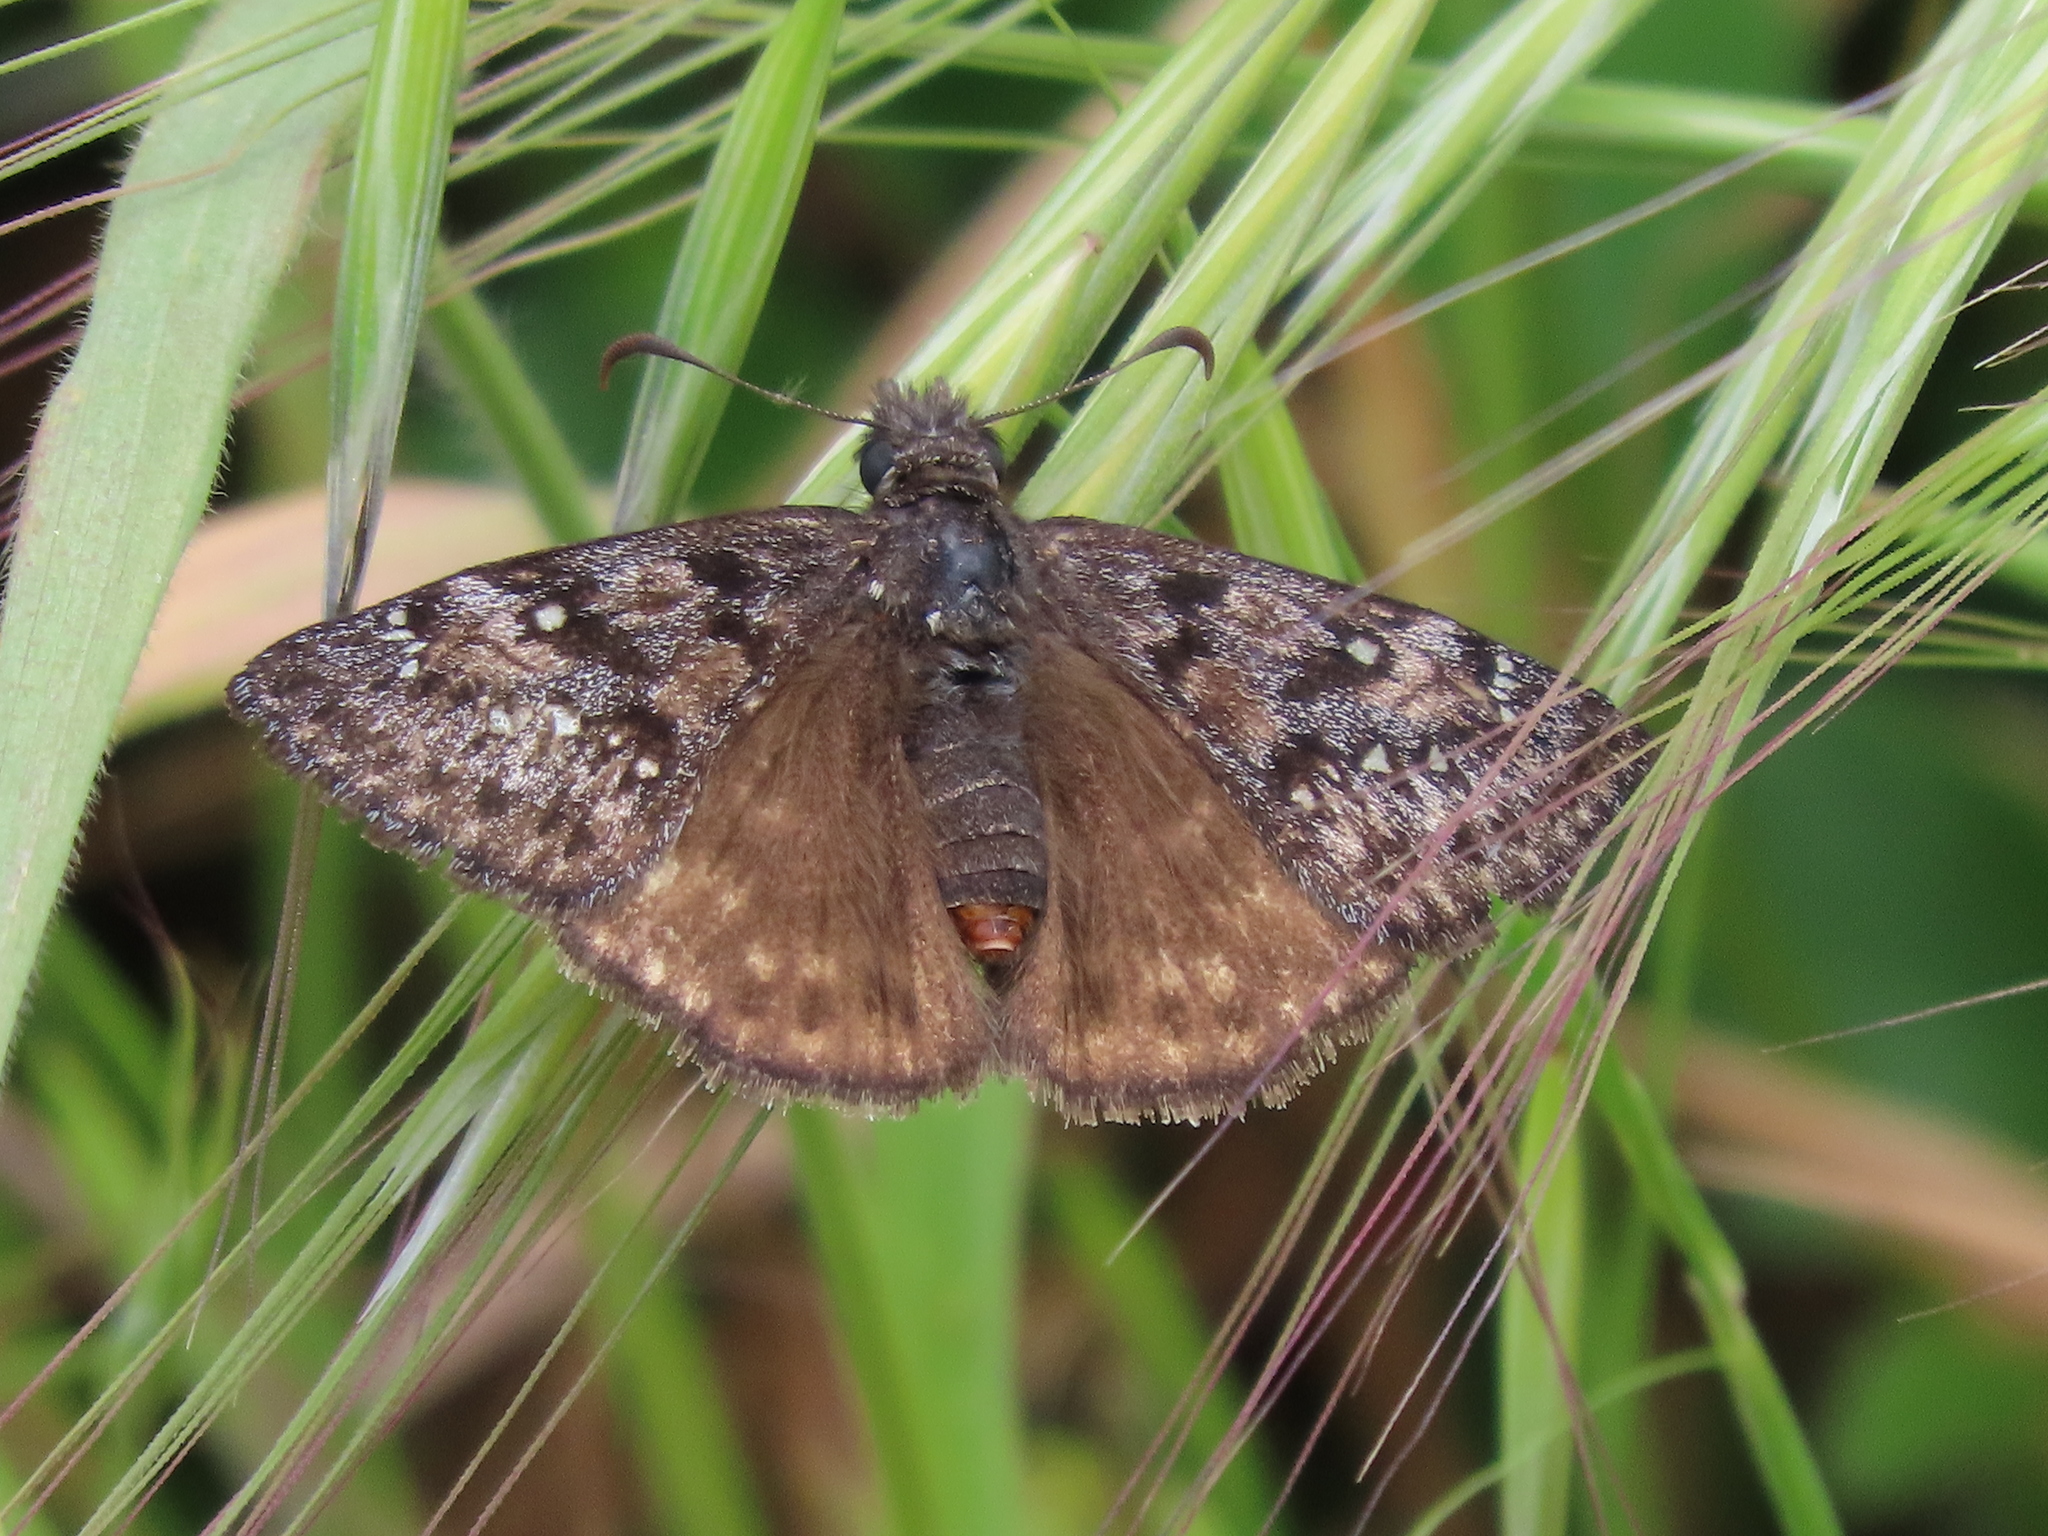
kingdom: Animalia
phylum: Arthropoda
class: Insecta
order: Lepidoptera
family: Hesperiidae
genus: Erynnis
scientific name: Erynnis propertius
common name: Propertius duskywing
